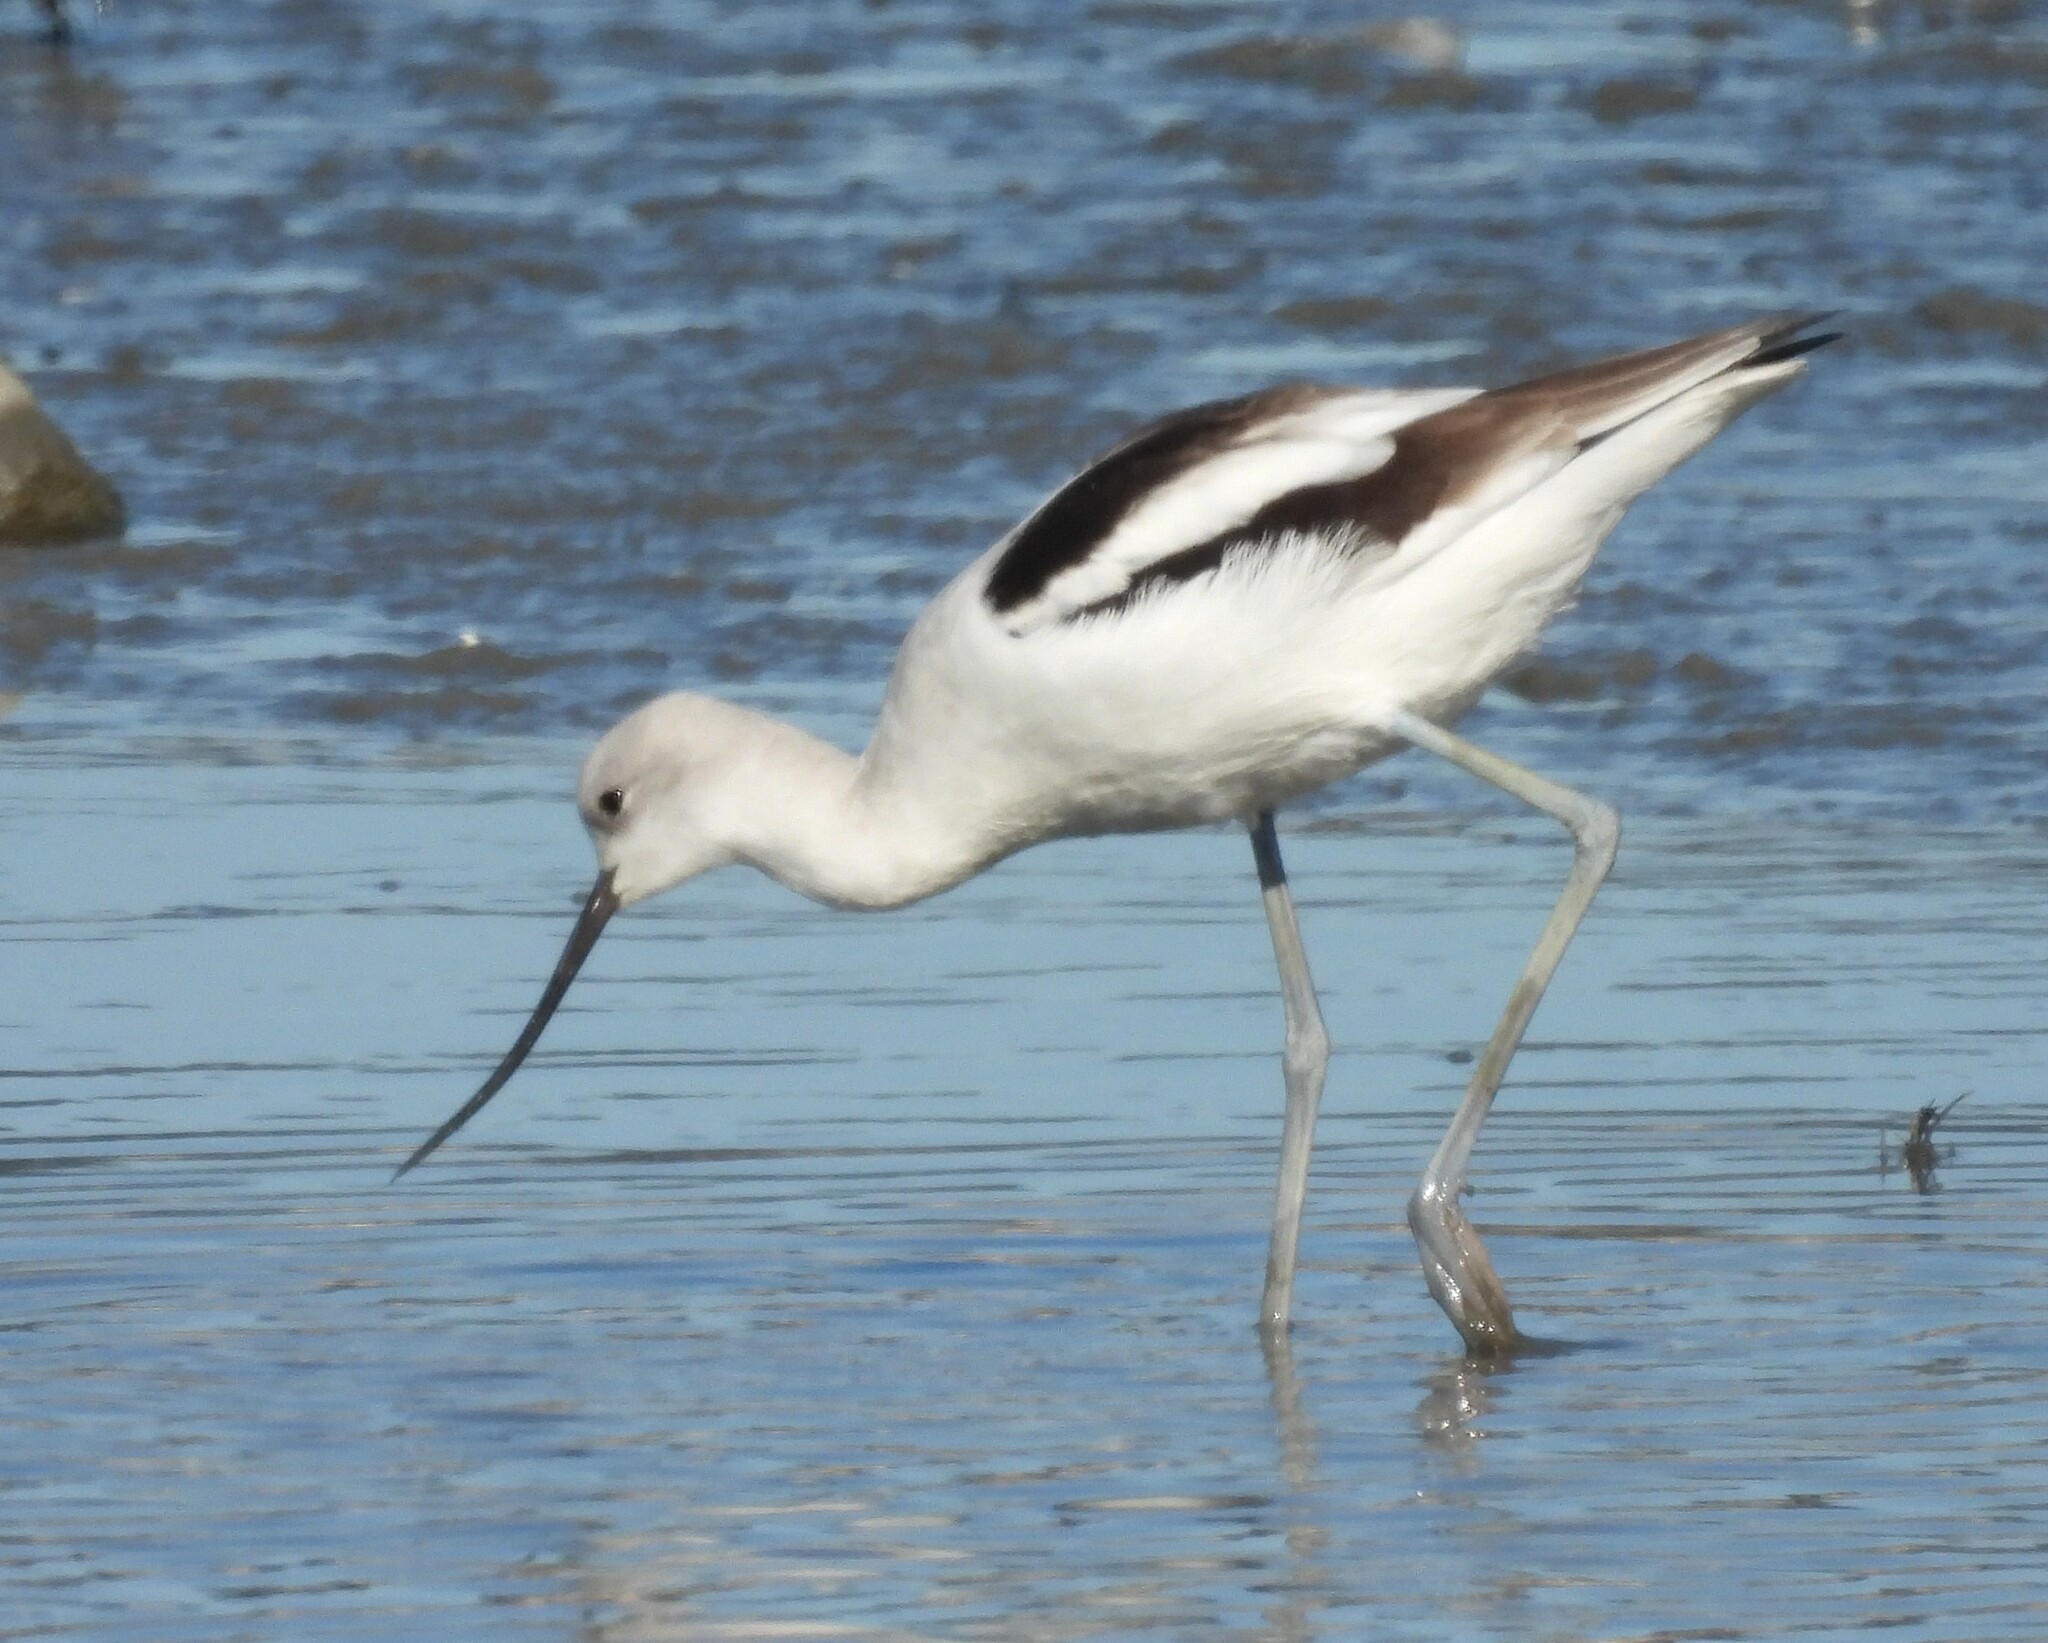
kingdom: Animalia
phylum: Chordata
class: Aves
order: Charadriiformes
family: Recurvirostridae
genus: Recurvirostra
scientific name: Recurvirostra americana
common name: American avocet
